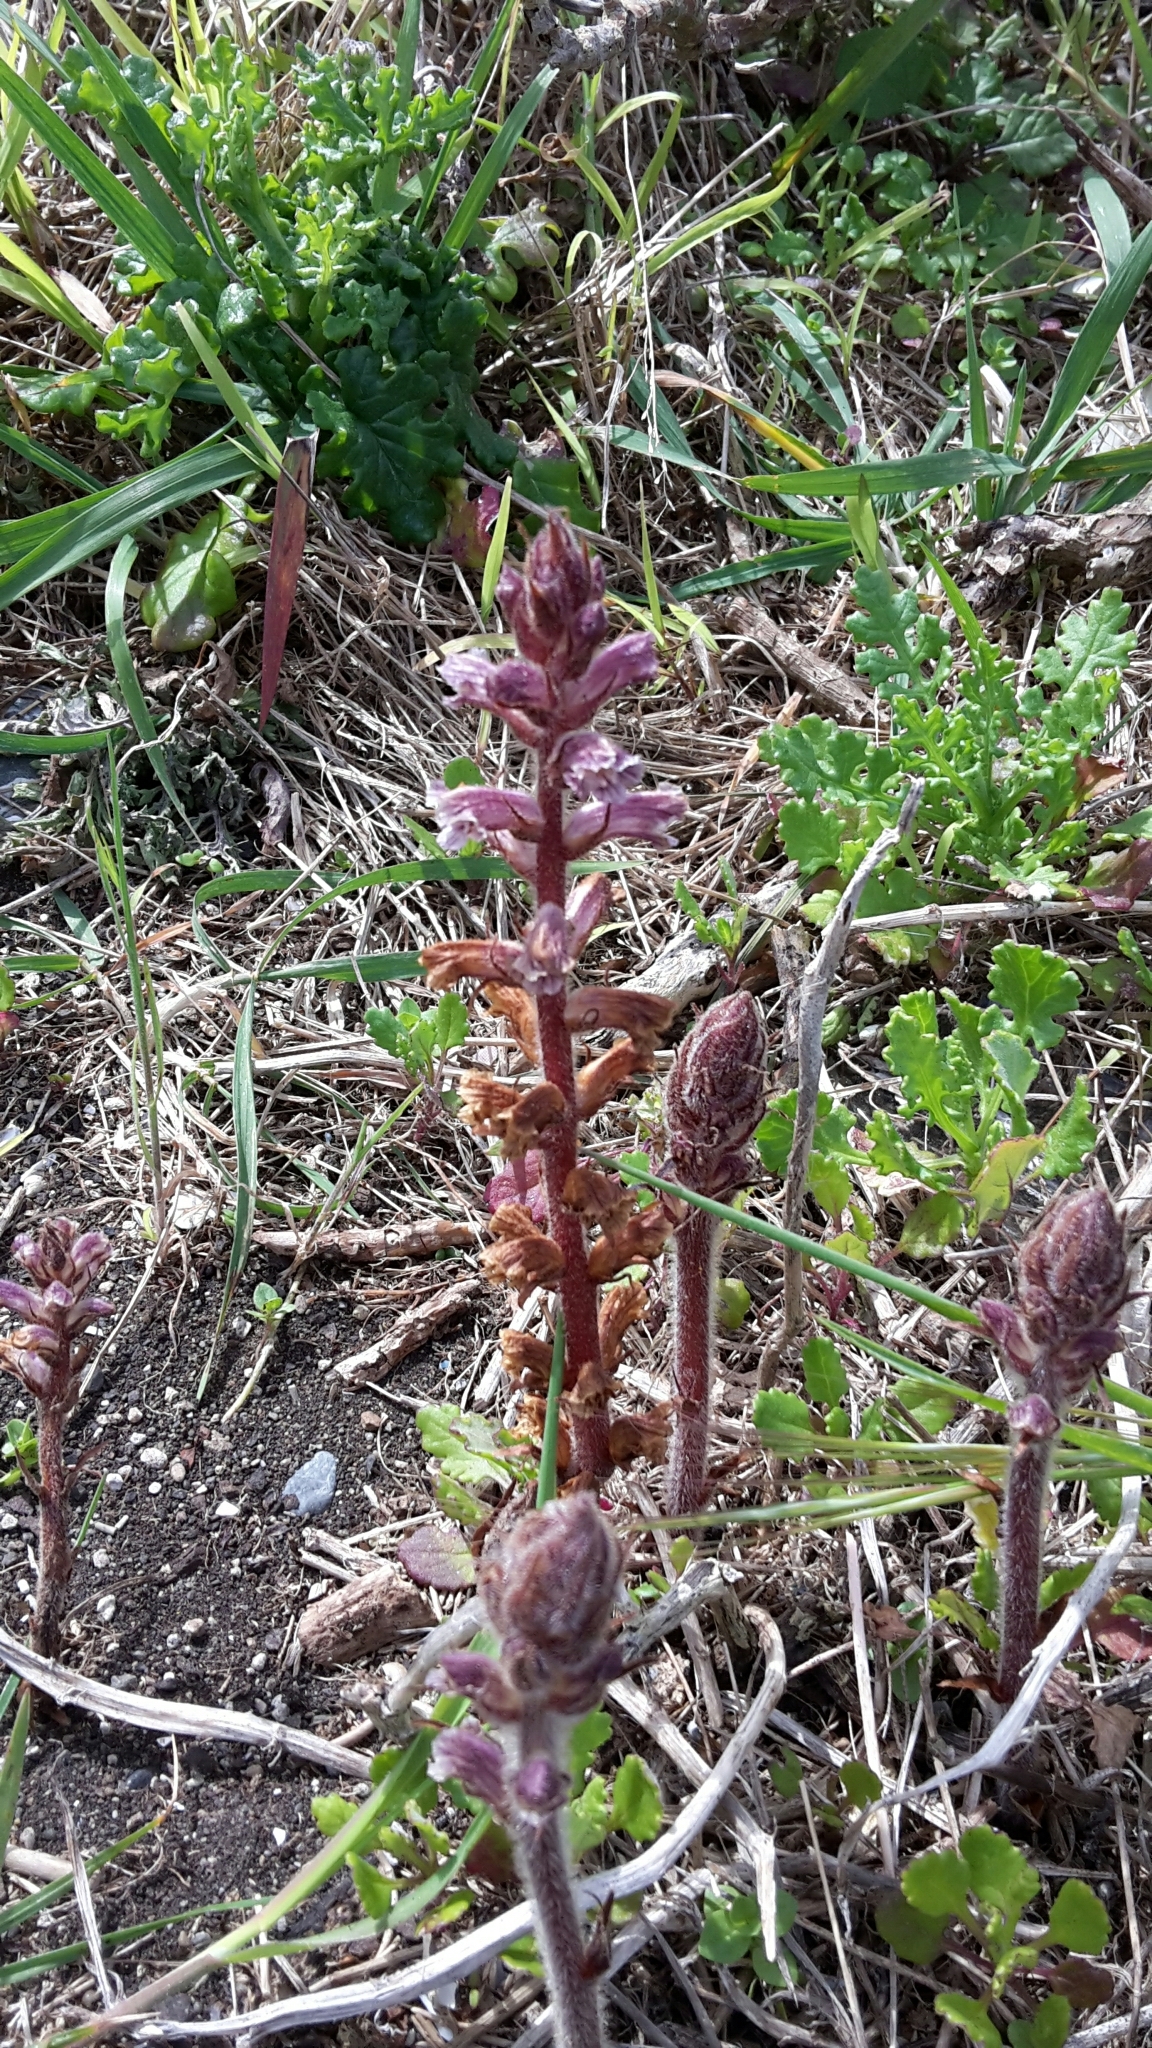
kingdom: Plantae
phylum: Tracheophyta
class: Magnoliopsida
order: Lamiales
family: Orobanchaceae
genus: Orobanche
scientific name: Orobanche minor
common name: Common broomrape
